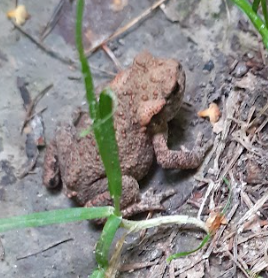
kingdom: Animalia
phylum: Chordata
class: Amphibia
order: Anura
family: Bufonidae
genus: Bufo
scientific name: Bufo bufo
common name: Common toad
